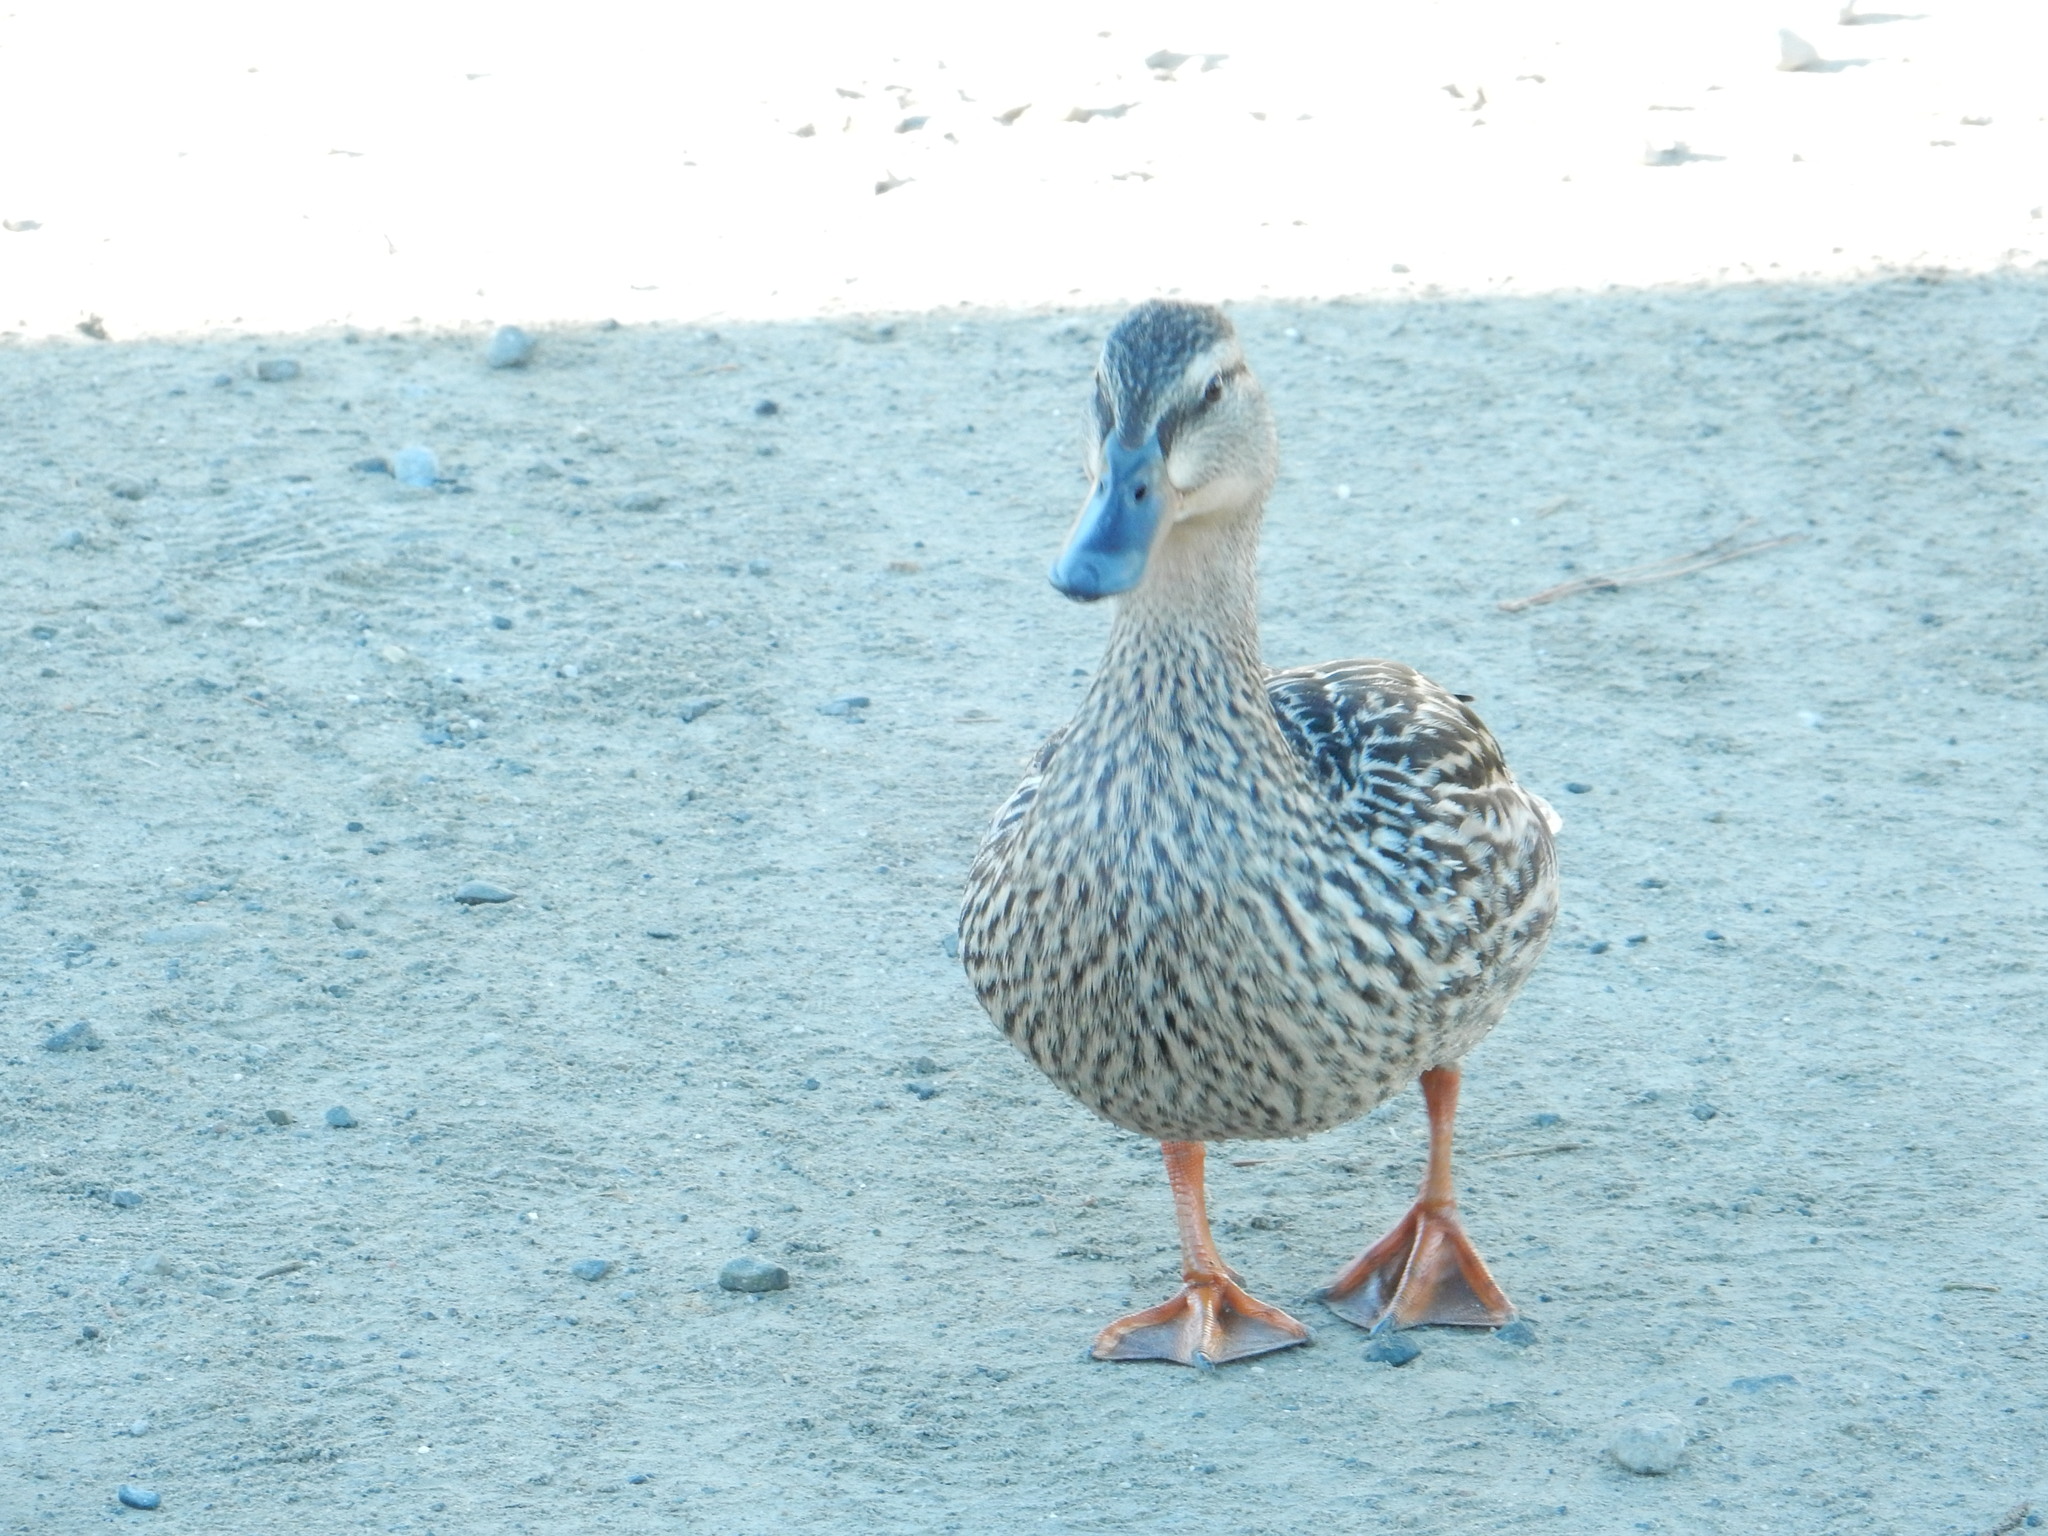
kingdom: Animalia
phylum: Chordata
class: Aves
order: Anseriformes
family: Anatidae
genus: Anas
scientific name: Anas platyrhynchos
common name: Mallard
